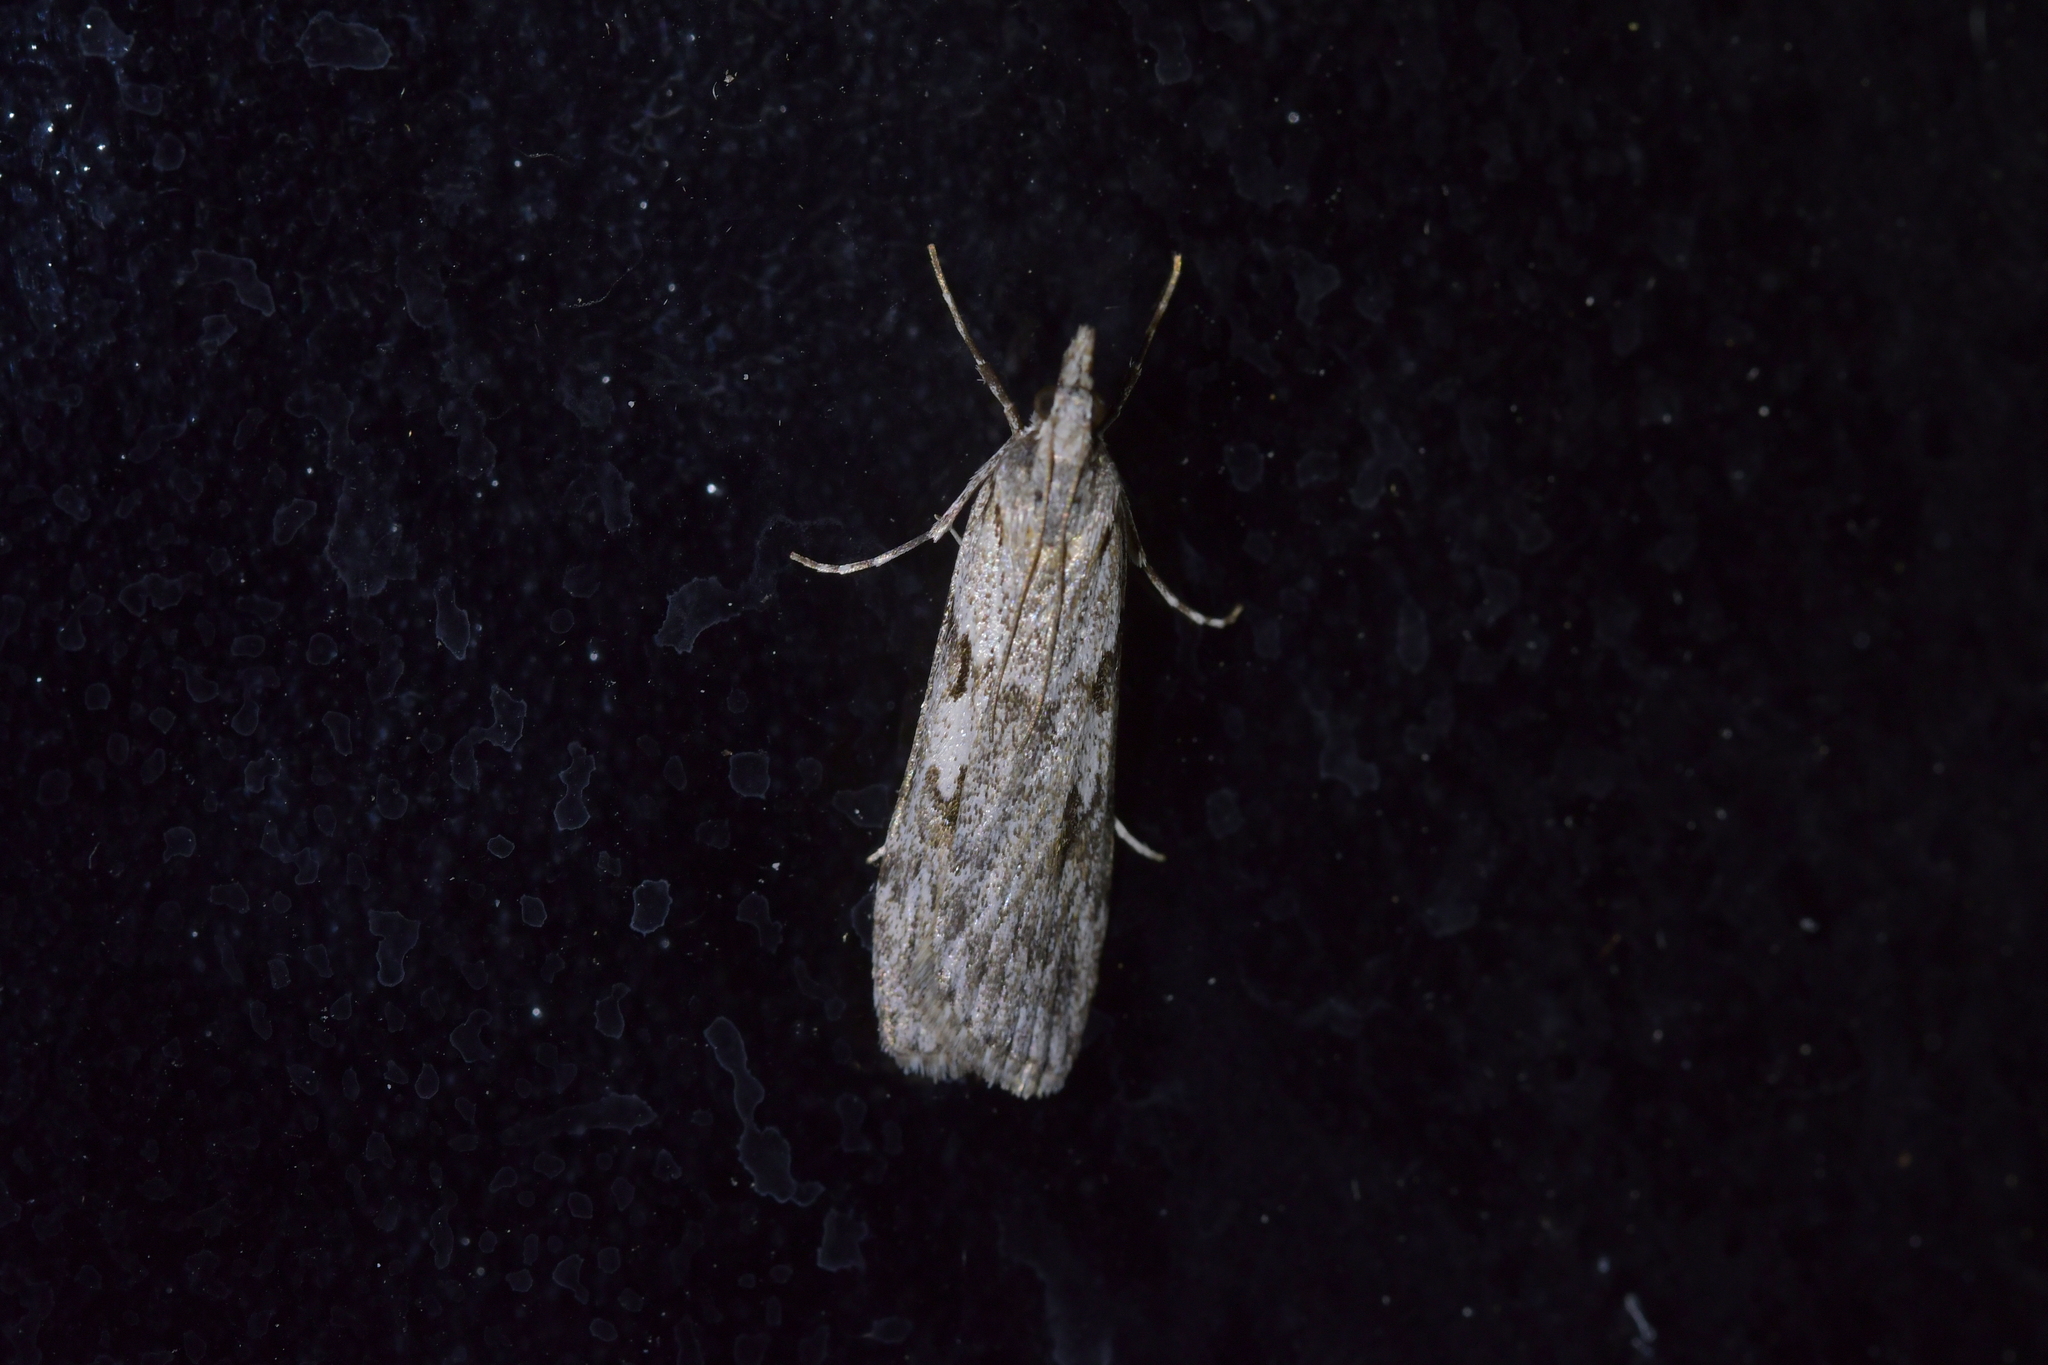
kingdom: Animalia
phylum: Arthropoda
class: Insecta
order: Lepidoptera
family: Crambidae
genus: Scoparia
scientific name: Scoparia halopis
